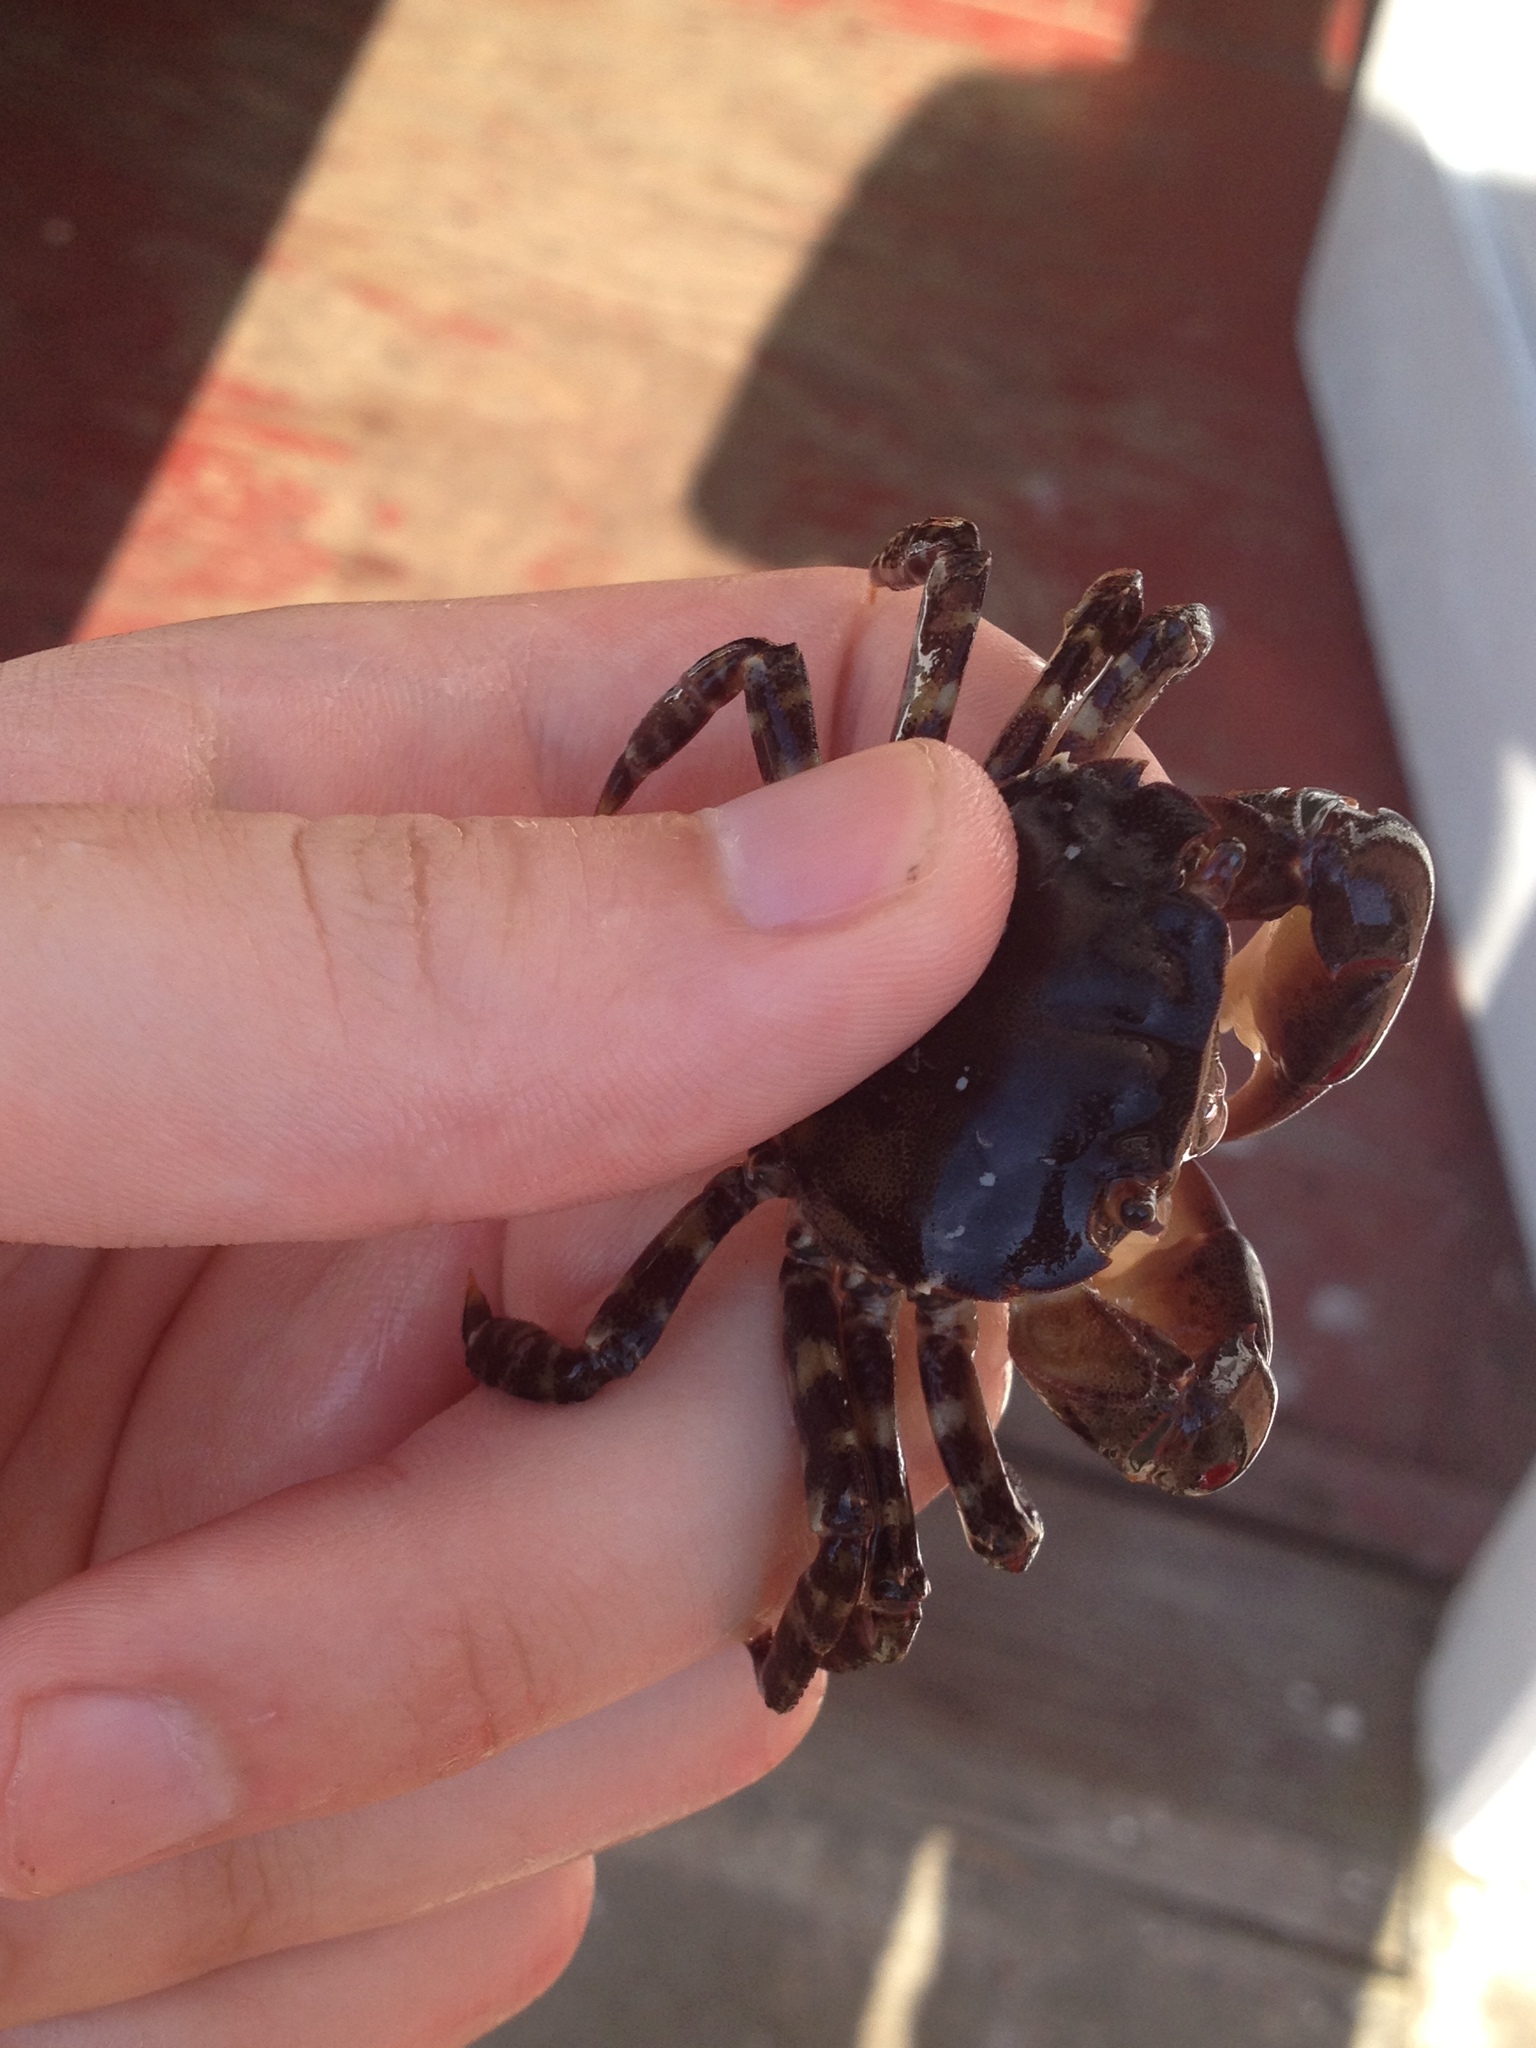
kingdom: Animalia
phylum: Arthropoda
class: Malacostraca
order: Decapoda
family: Varunidae
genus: Hemigrapsus
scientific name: Hemigrapsus sanguineus
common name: Asian shore crab
